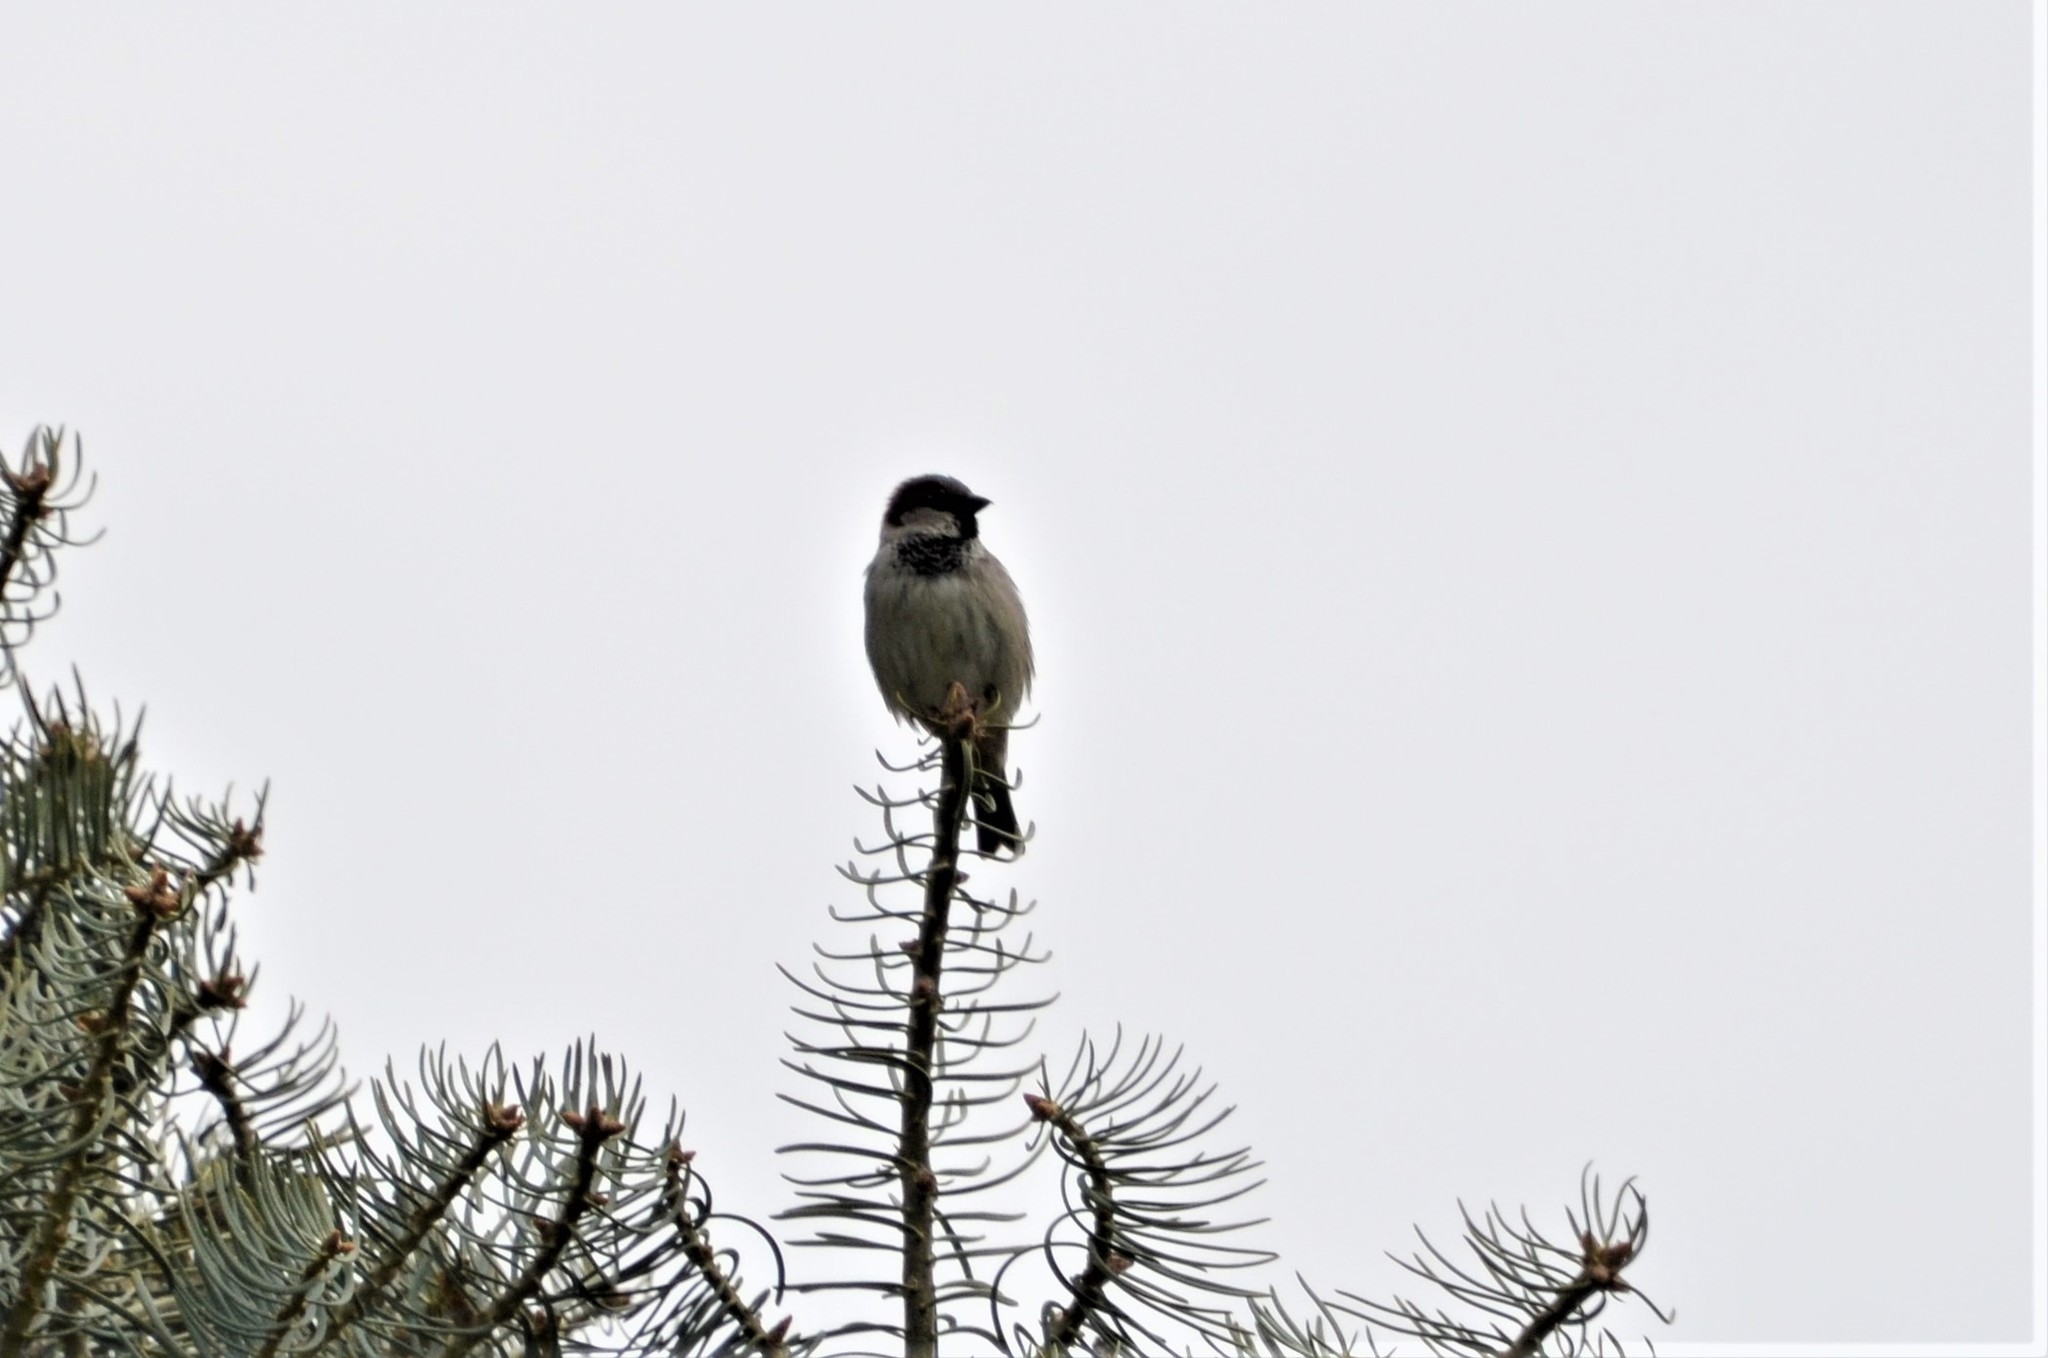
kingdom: Animalia
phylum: Chordata
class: Aves
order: Passeriformes
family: Passeridae
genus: Passer
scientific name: Passer domesticus
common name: House sparrow
